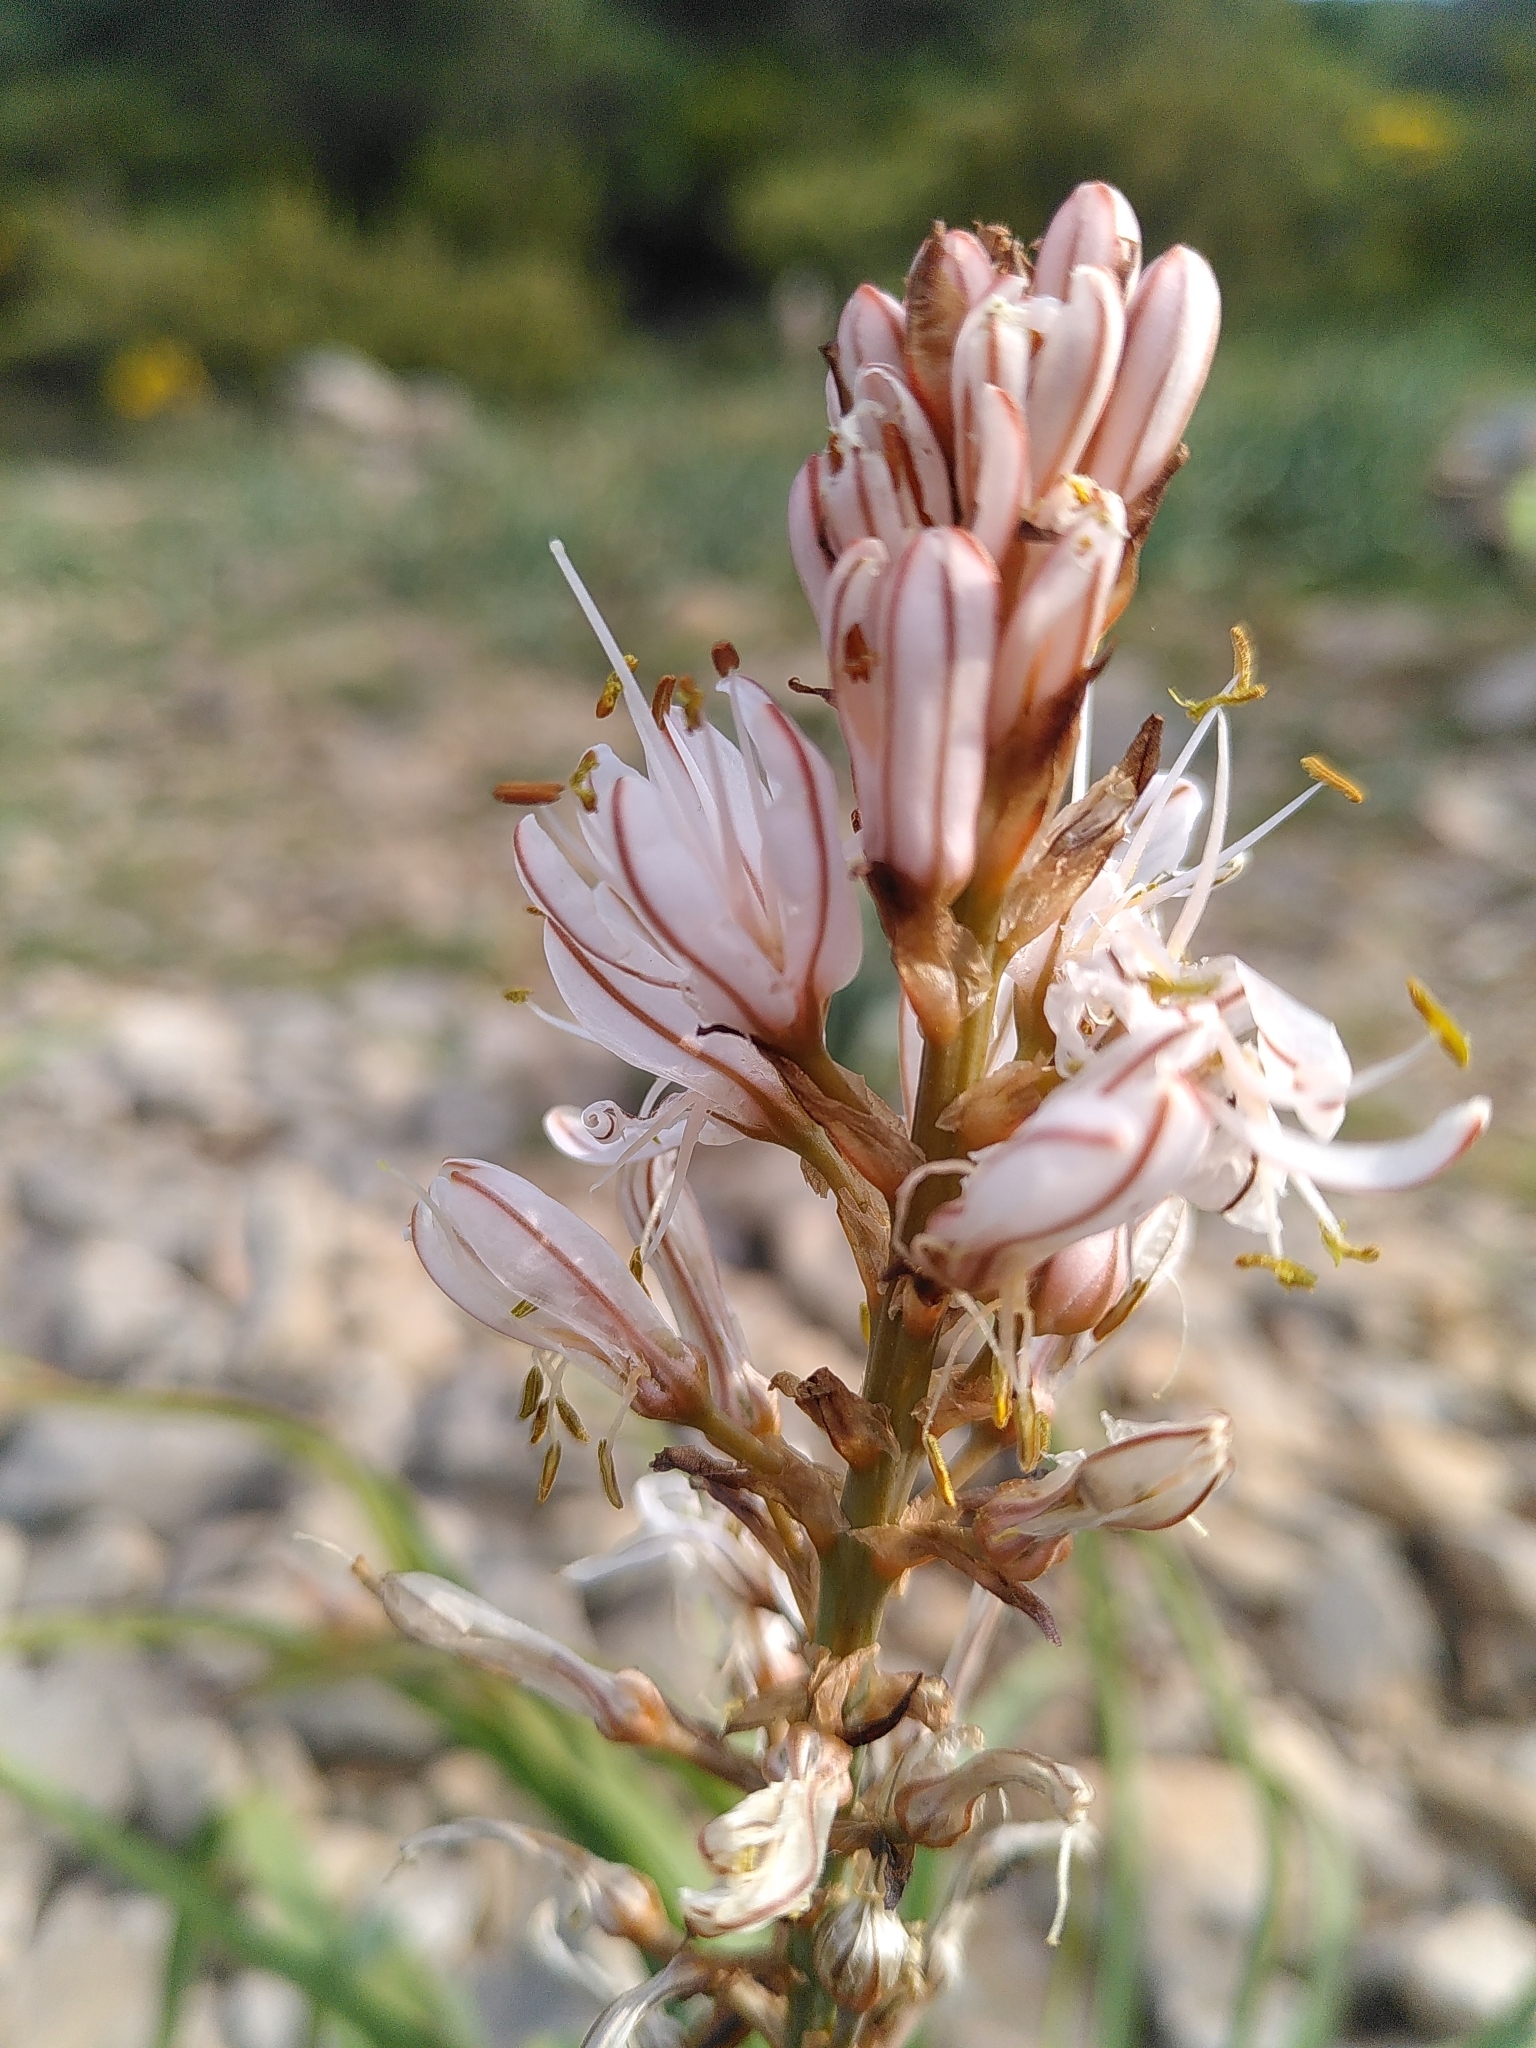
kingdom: Plantae
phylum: Tracheophyta
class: Liliopsida
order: Asparagales
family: Asphodelaceae
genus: Asphodelus
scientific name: Asphodelus cerasifer
